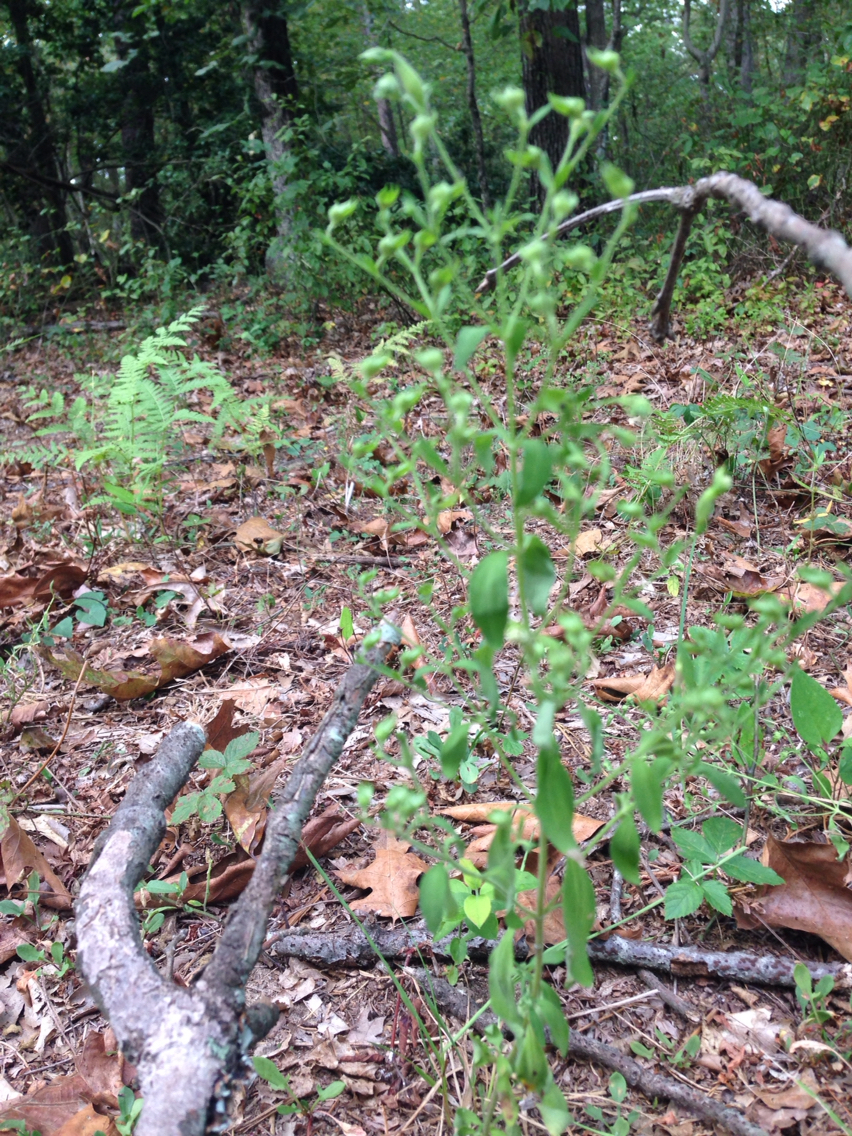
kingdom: Plantae
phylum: Tracheophyta
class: Magnoliopsida
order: Lamiales
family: Lamiaceae
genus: Trichostema
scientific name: Trichostema dichotomum
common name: Bastard pennyroyal
